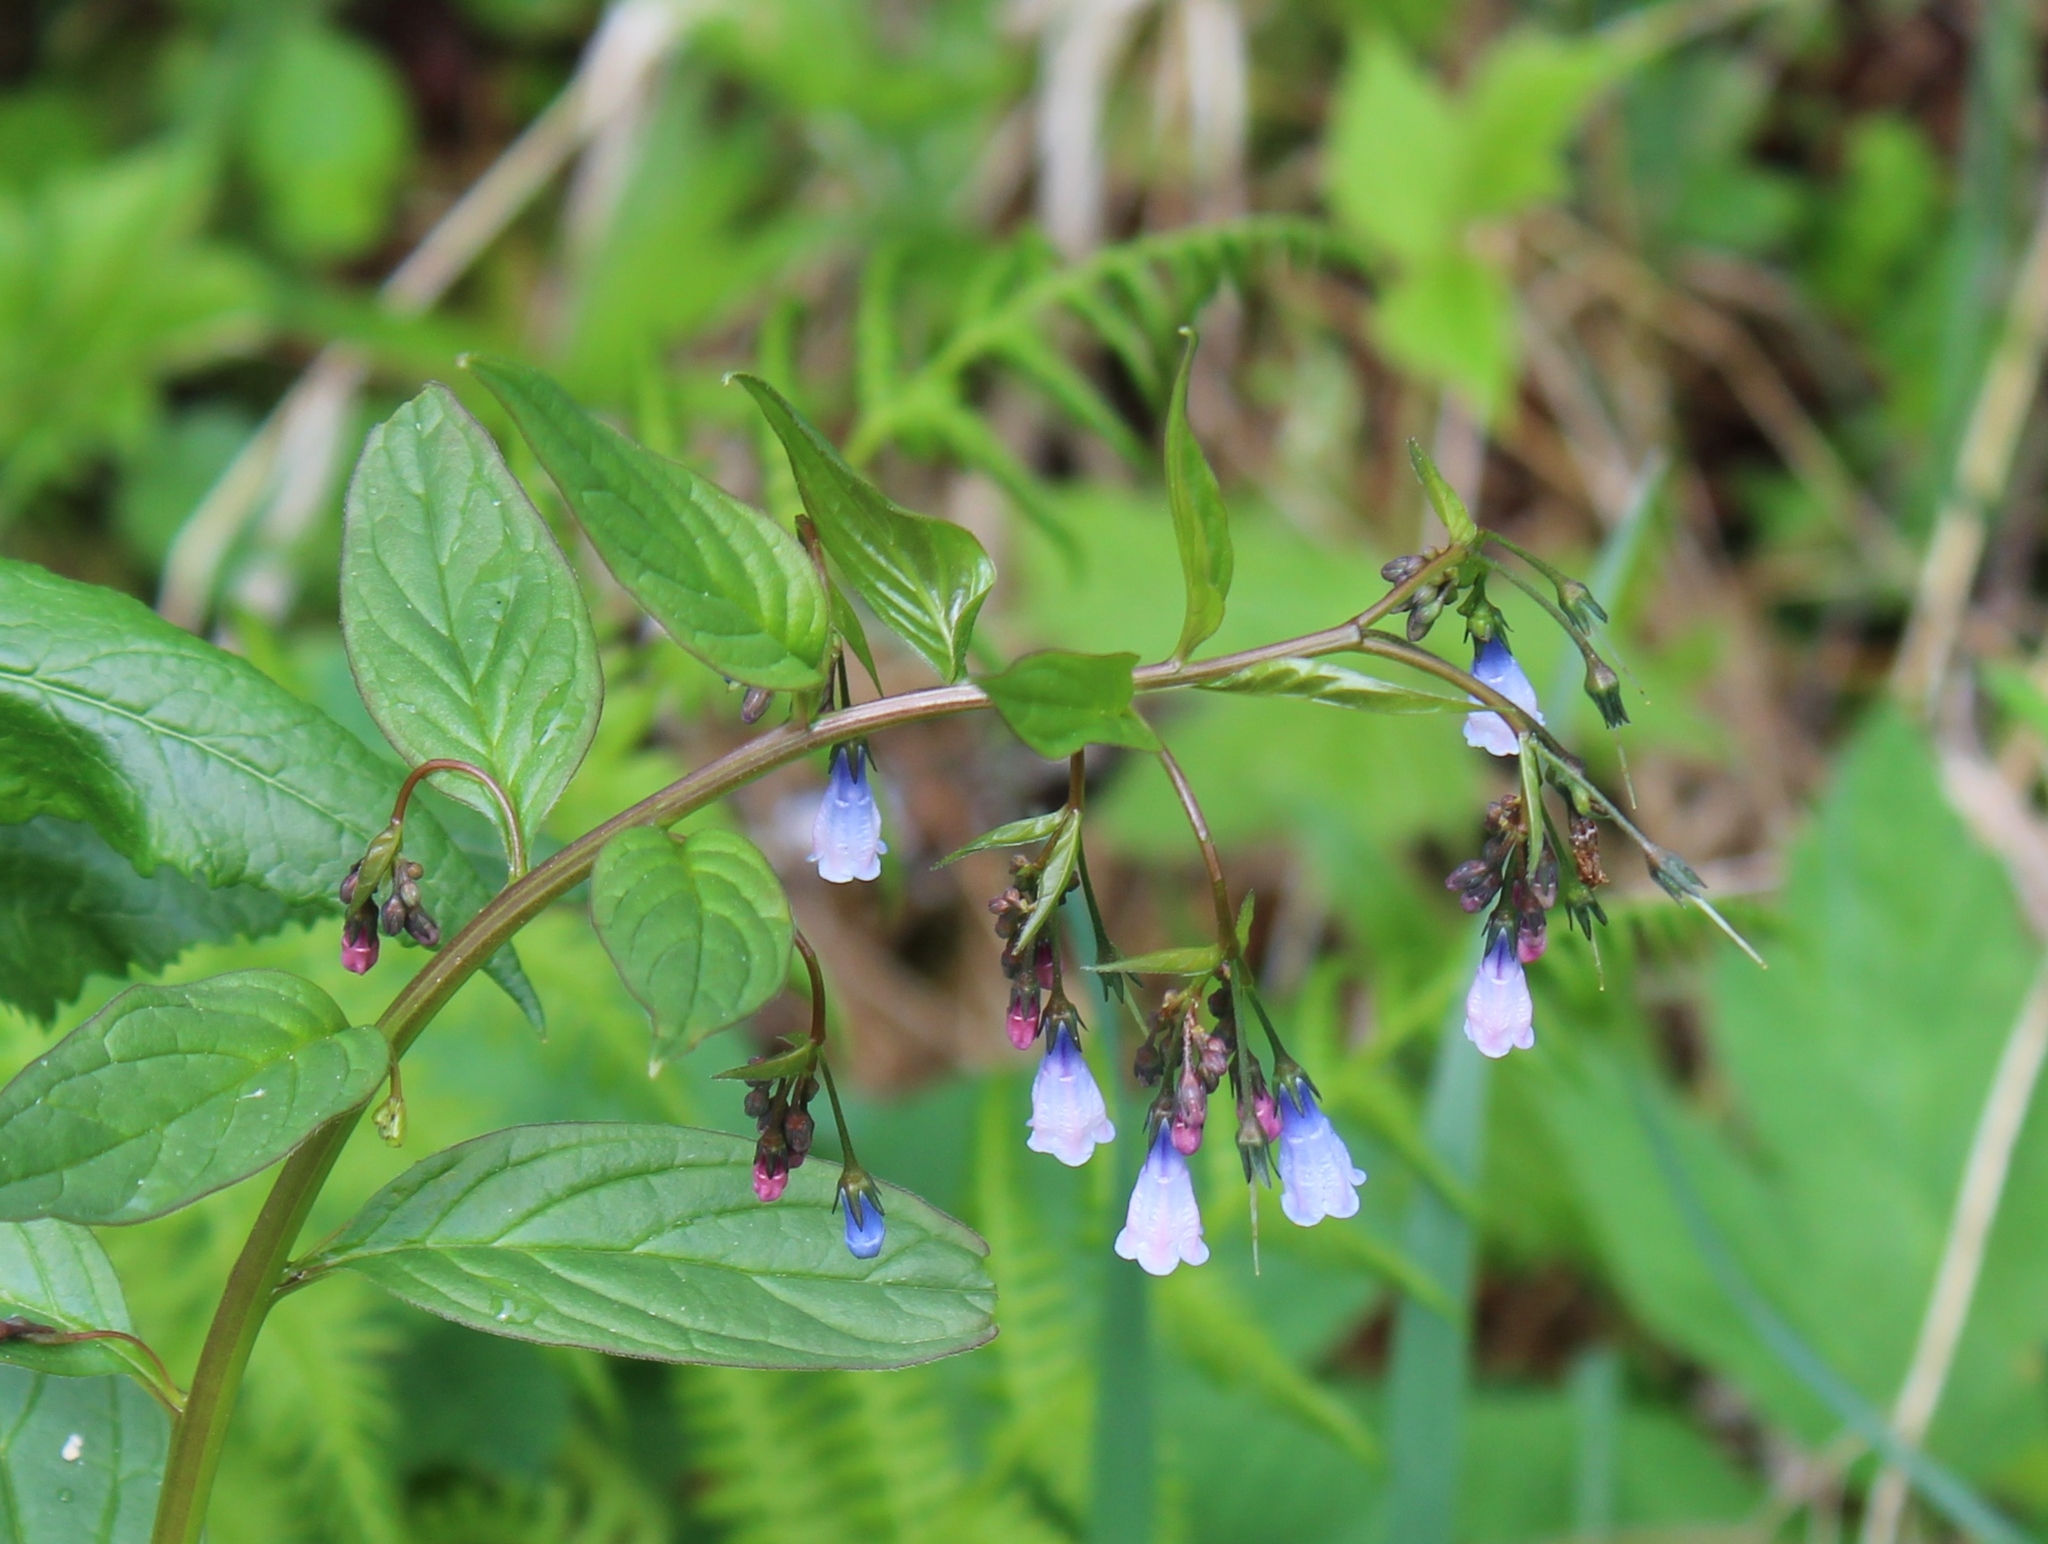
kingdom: Plantae
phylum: Tracheophyta
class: Magnoliopsida
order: Boraginales
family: Boraginaceae
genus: Mertensia
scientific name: Mertensia paniculata
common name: Panicled bluebells
